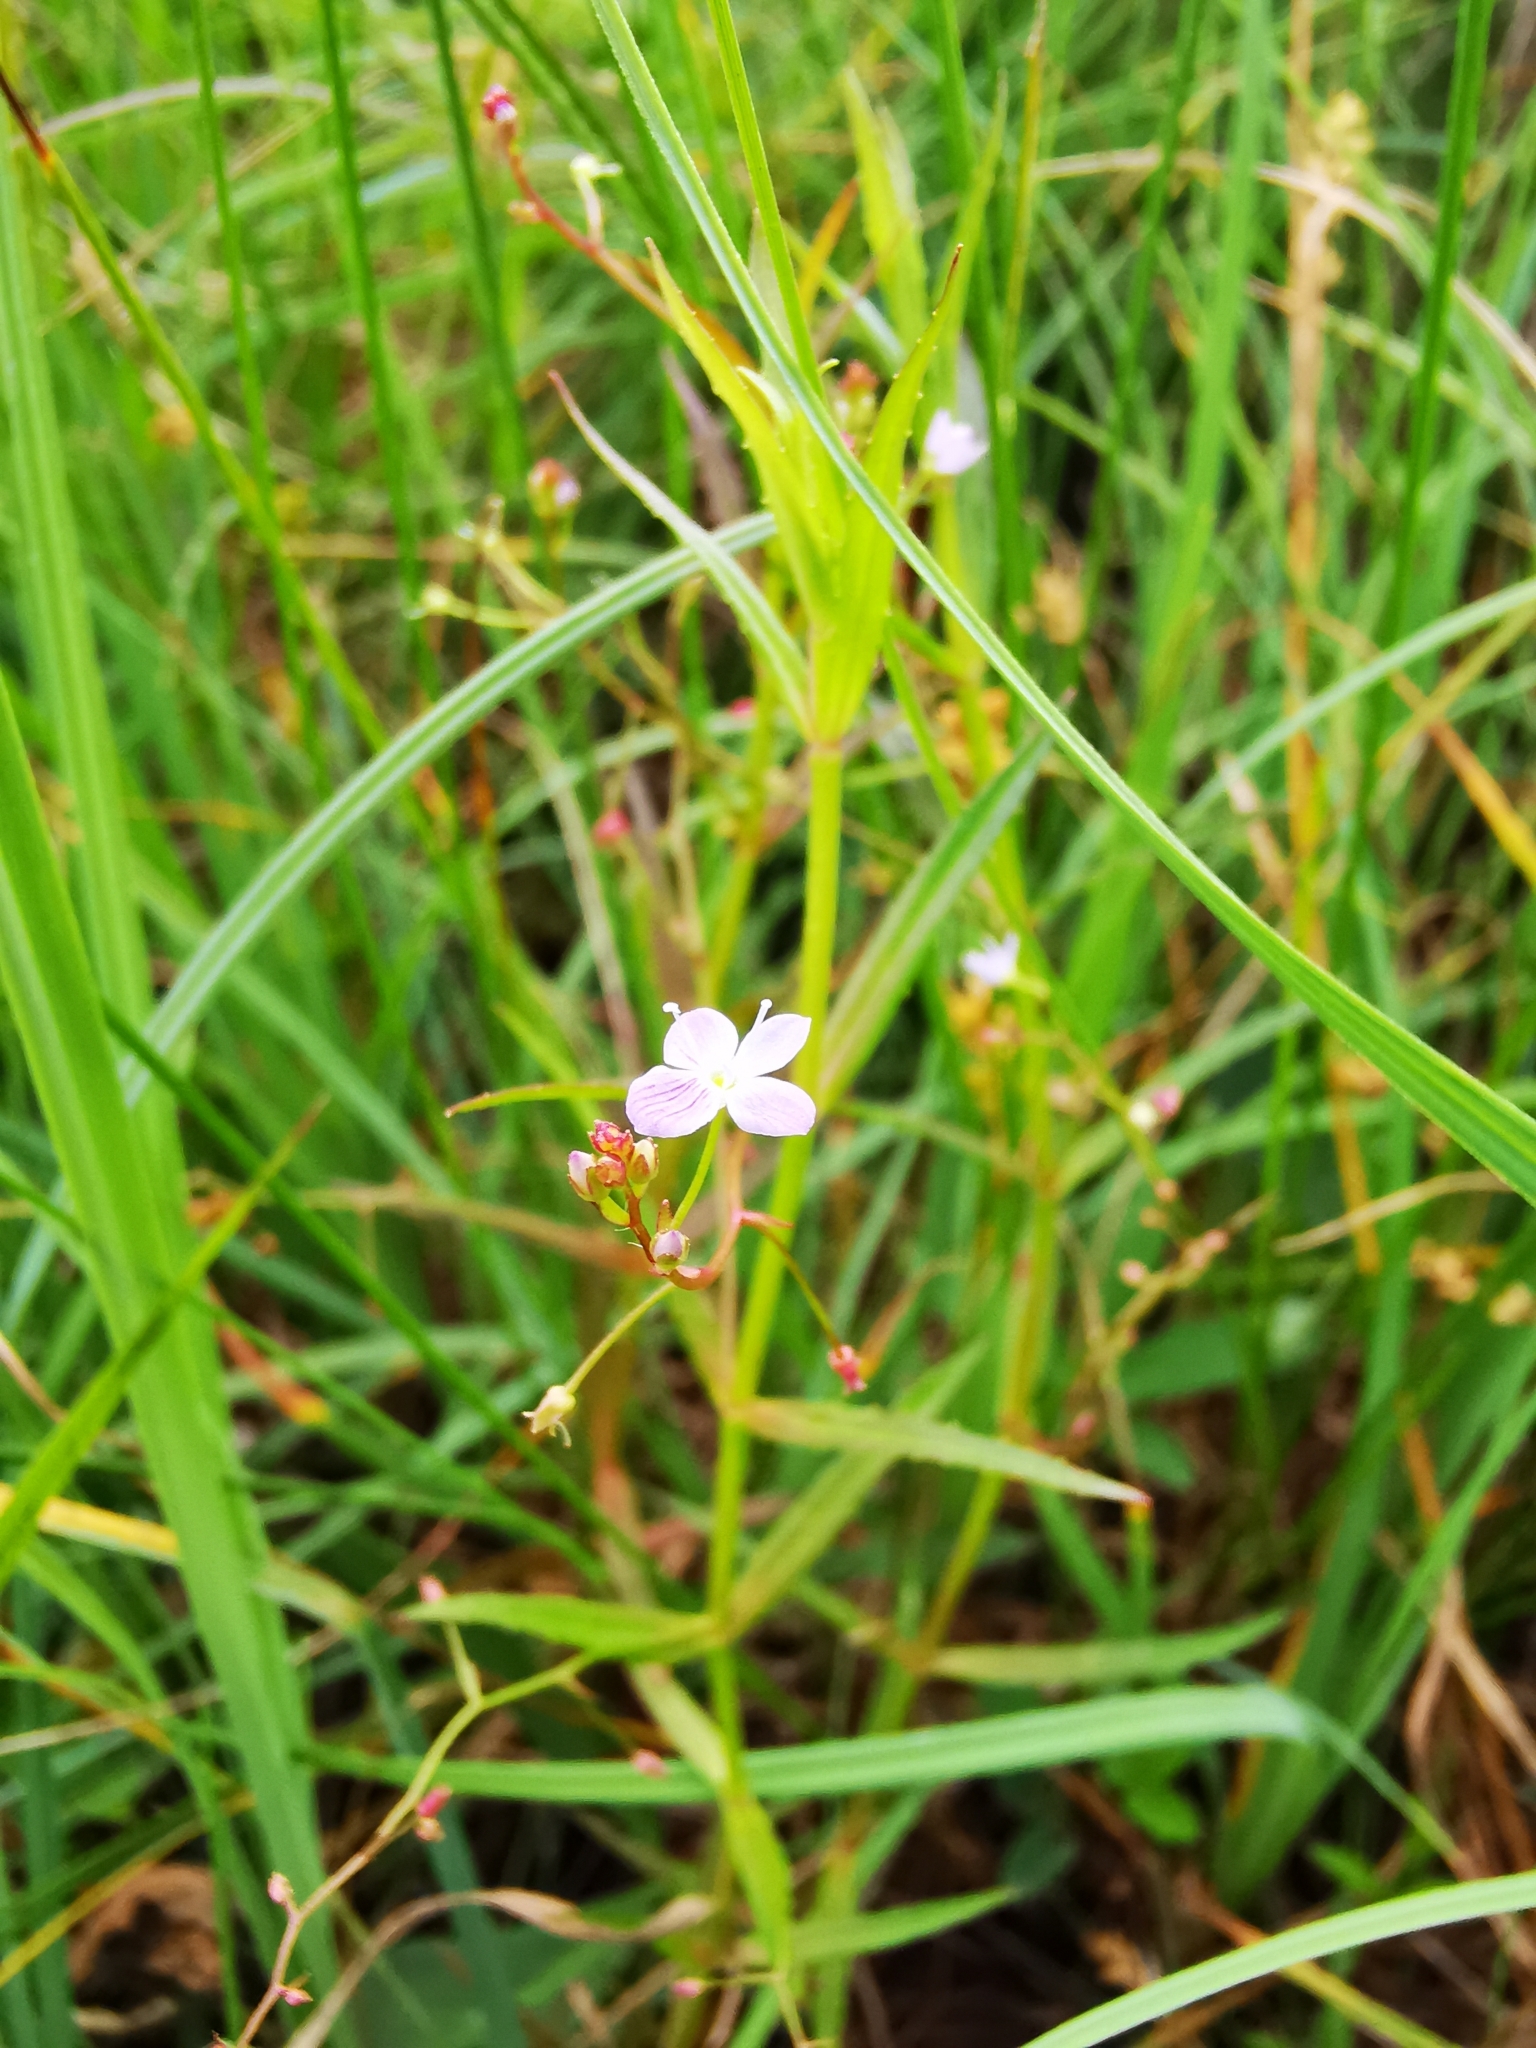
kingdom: Plantae
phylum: Tracheophyta
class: Magnoliopsida
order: Lamiales
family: Plantaginaceae
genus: Veronica
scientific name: Veronica scutellata
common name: Marsh speedwell
